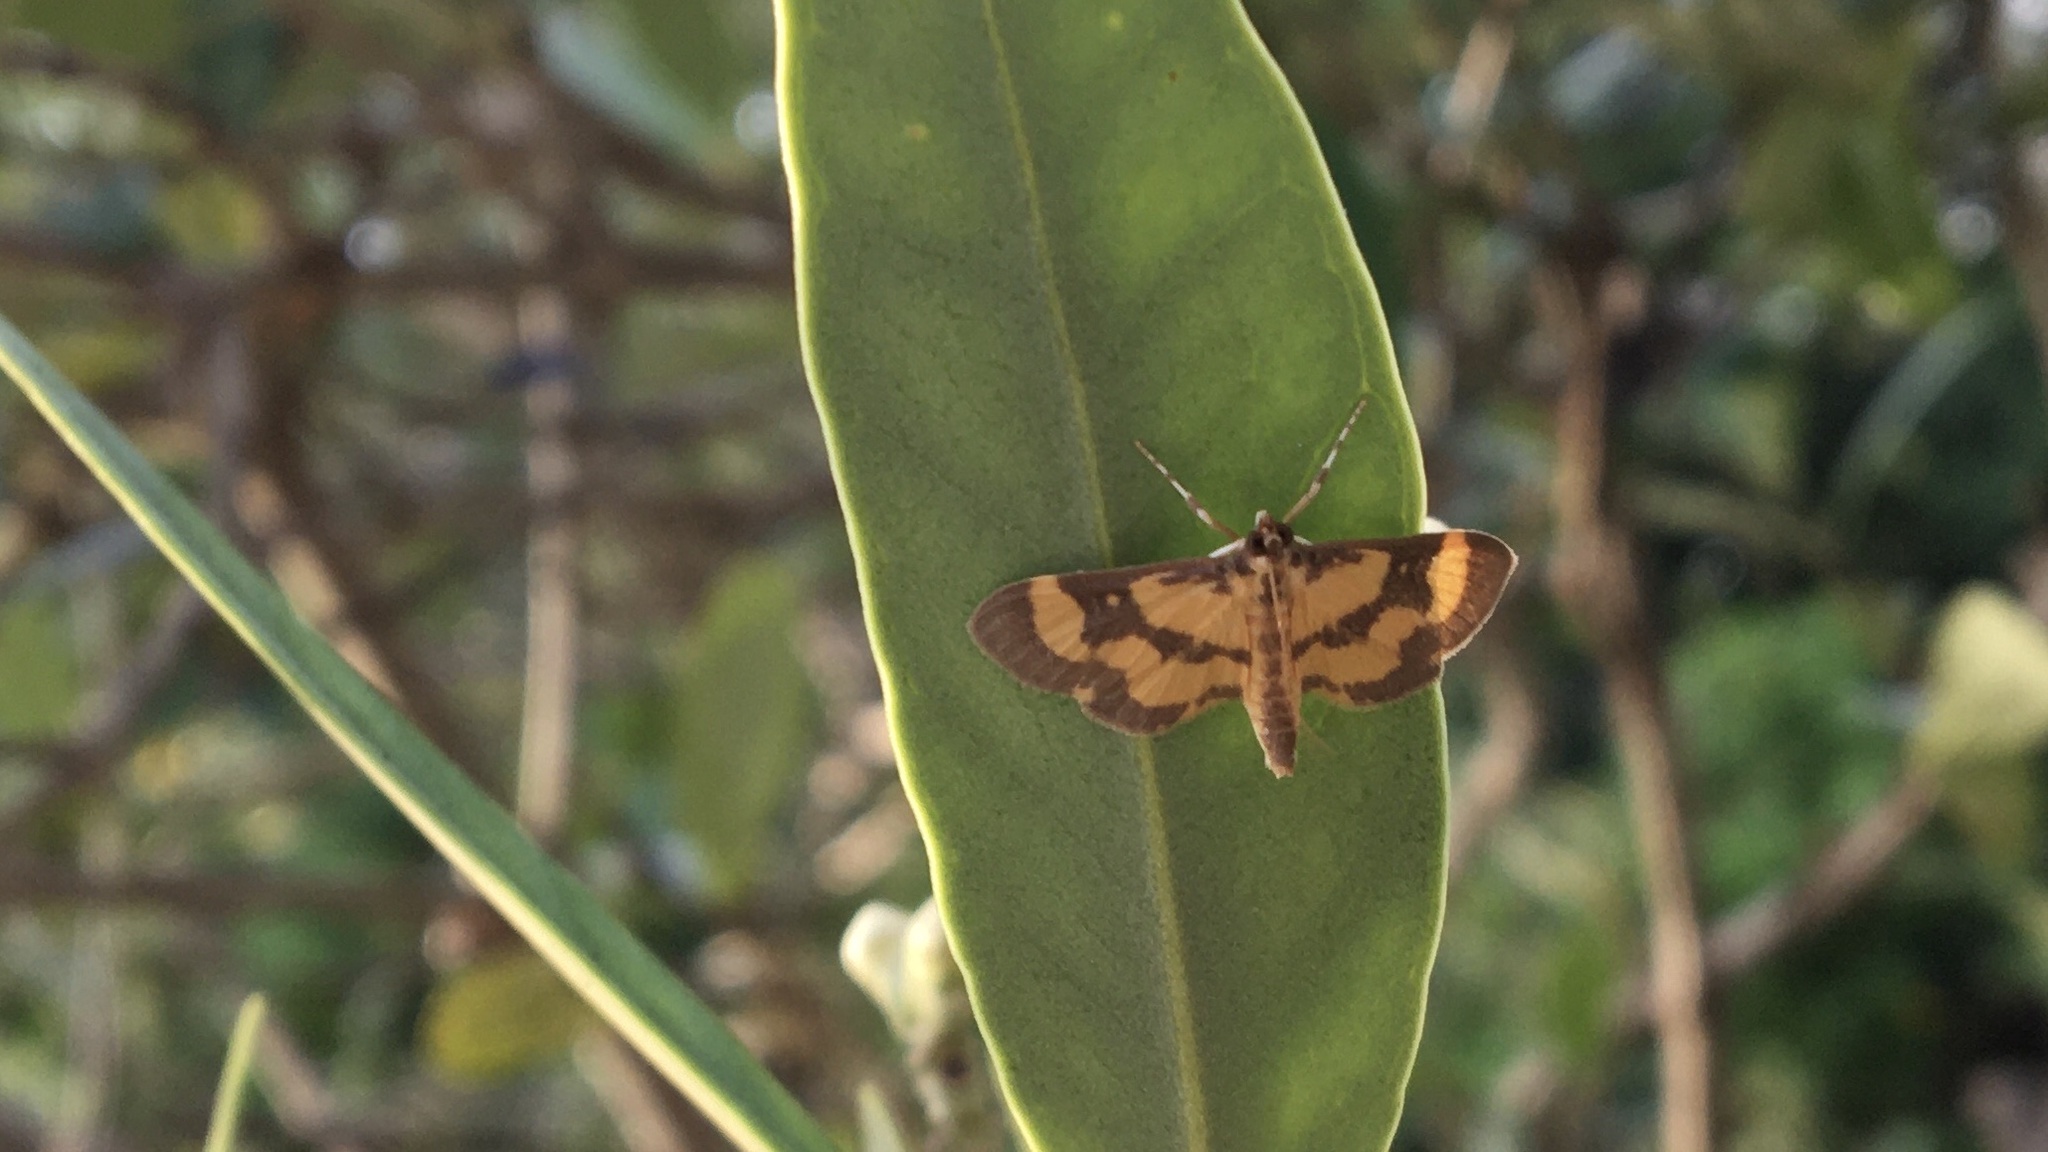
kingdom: Animalia
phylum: Arthropoda
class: Insecta
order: Lepidoptera
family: Crambidae
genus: Lygropia
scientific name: Lygropia fusalis
